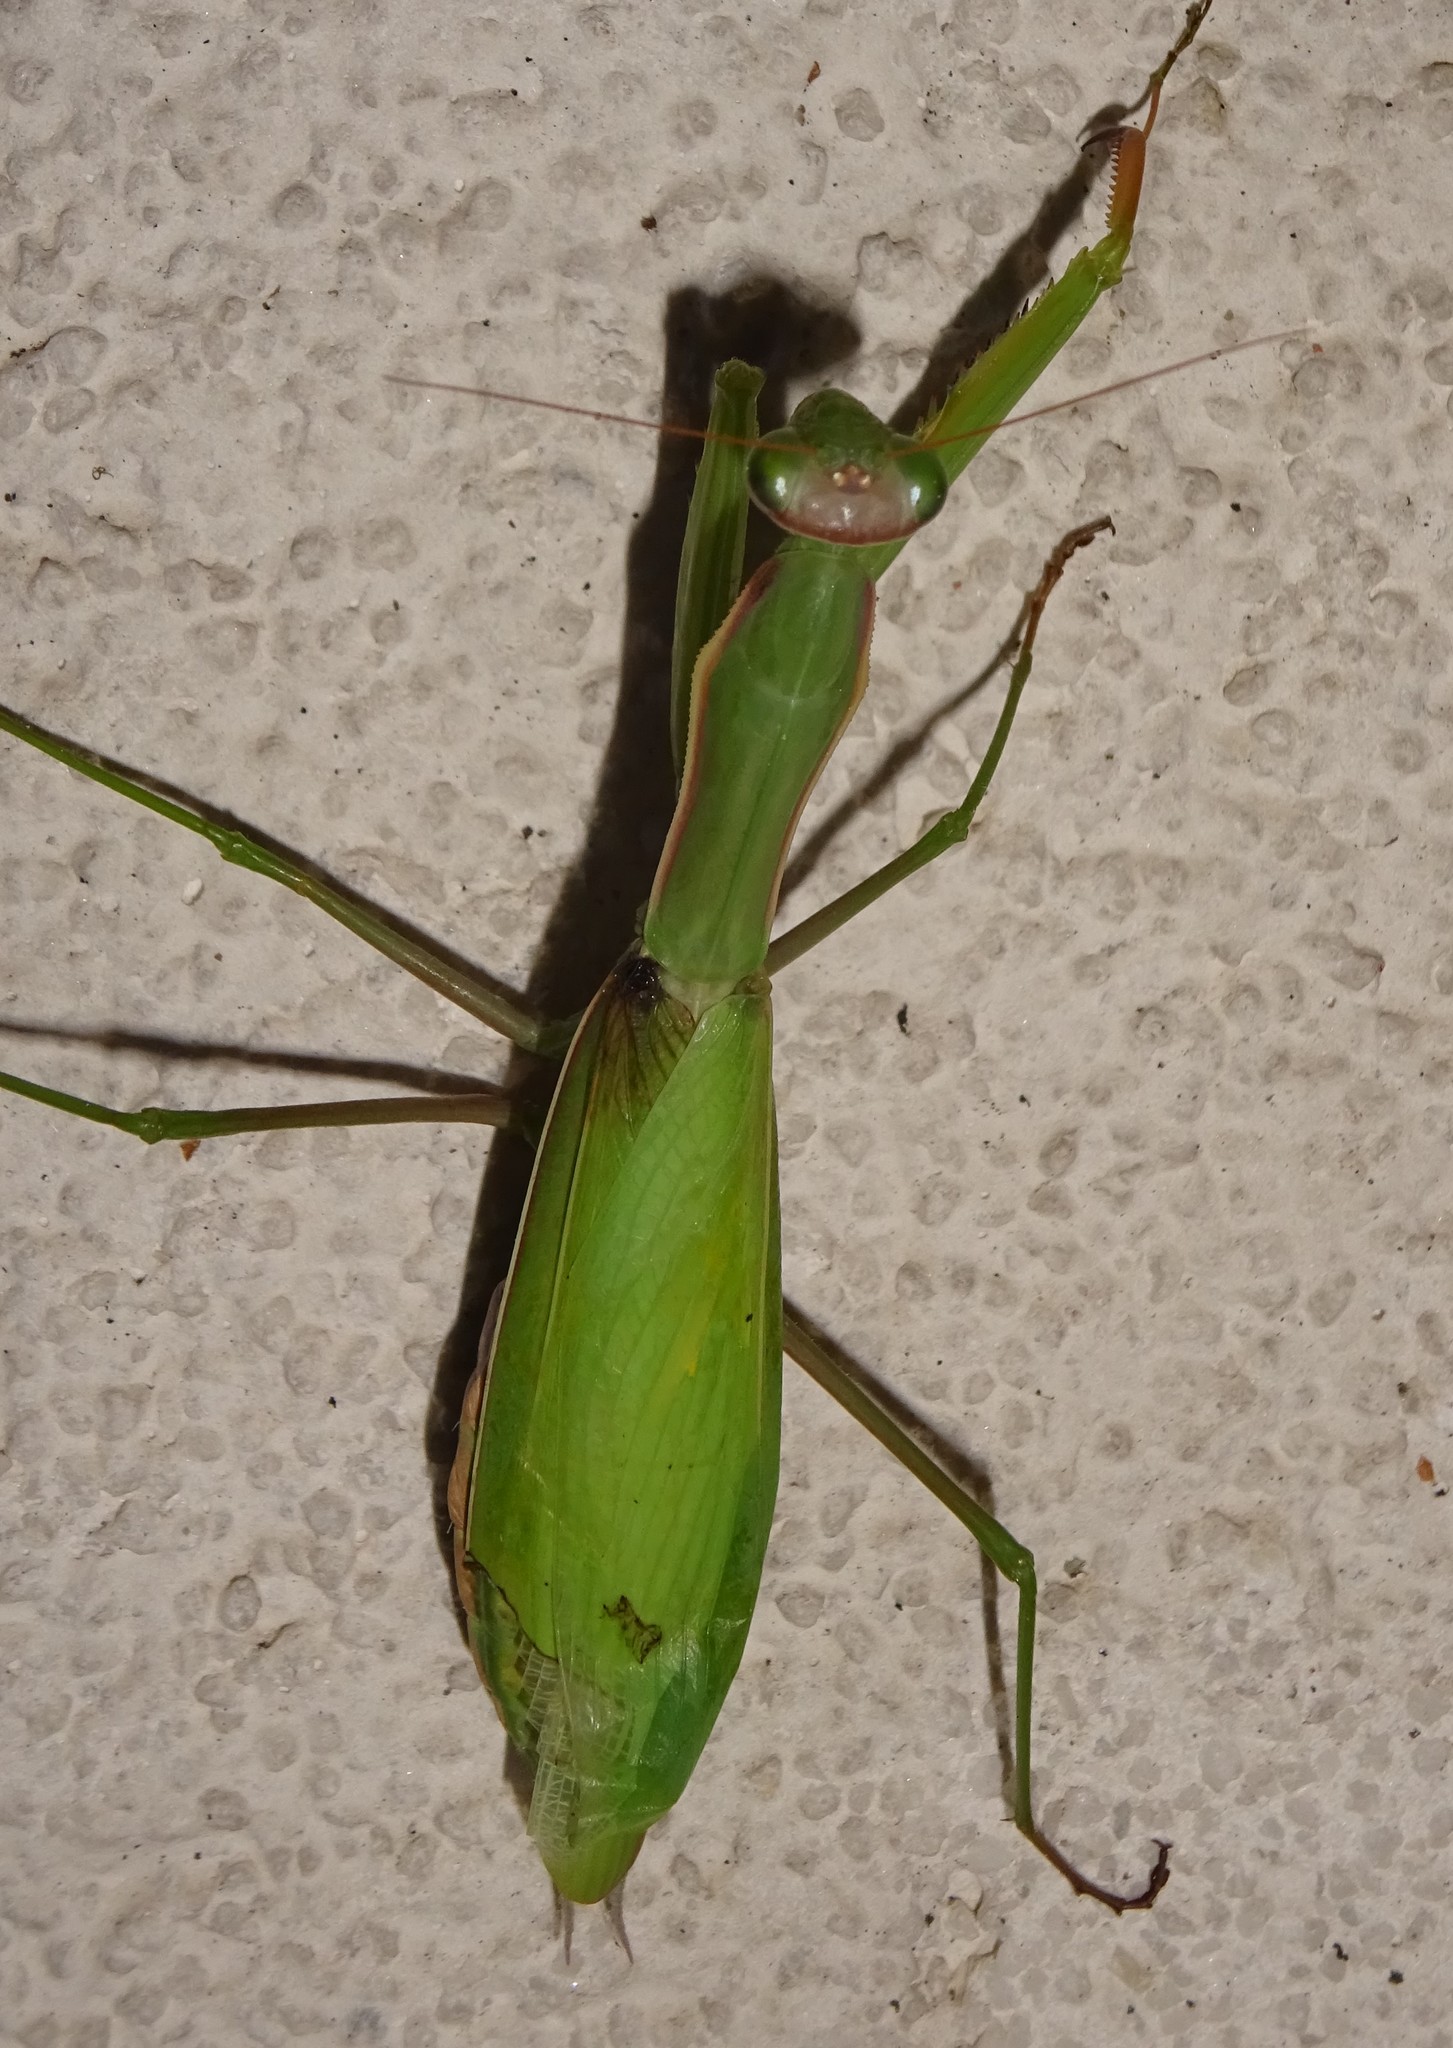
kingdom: Animalia
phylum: Arthropoda
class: Insecta
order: Mantodea
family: Mantidae
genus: Mantis
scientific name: Mantis religiosa
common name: Praying mantis
